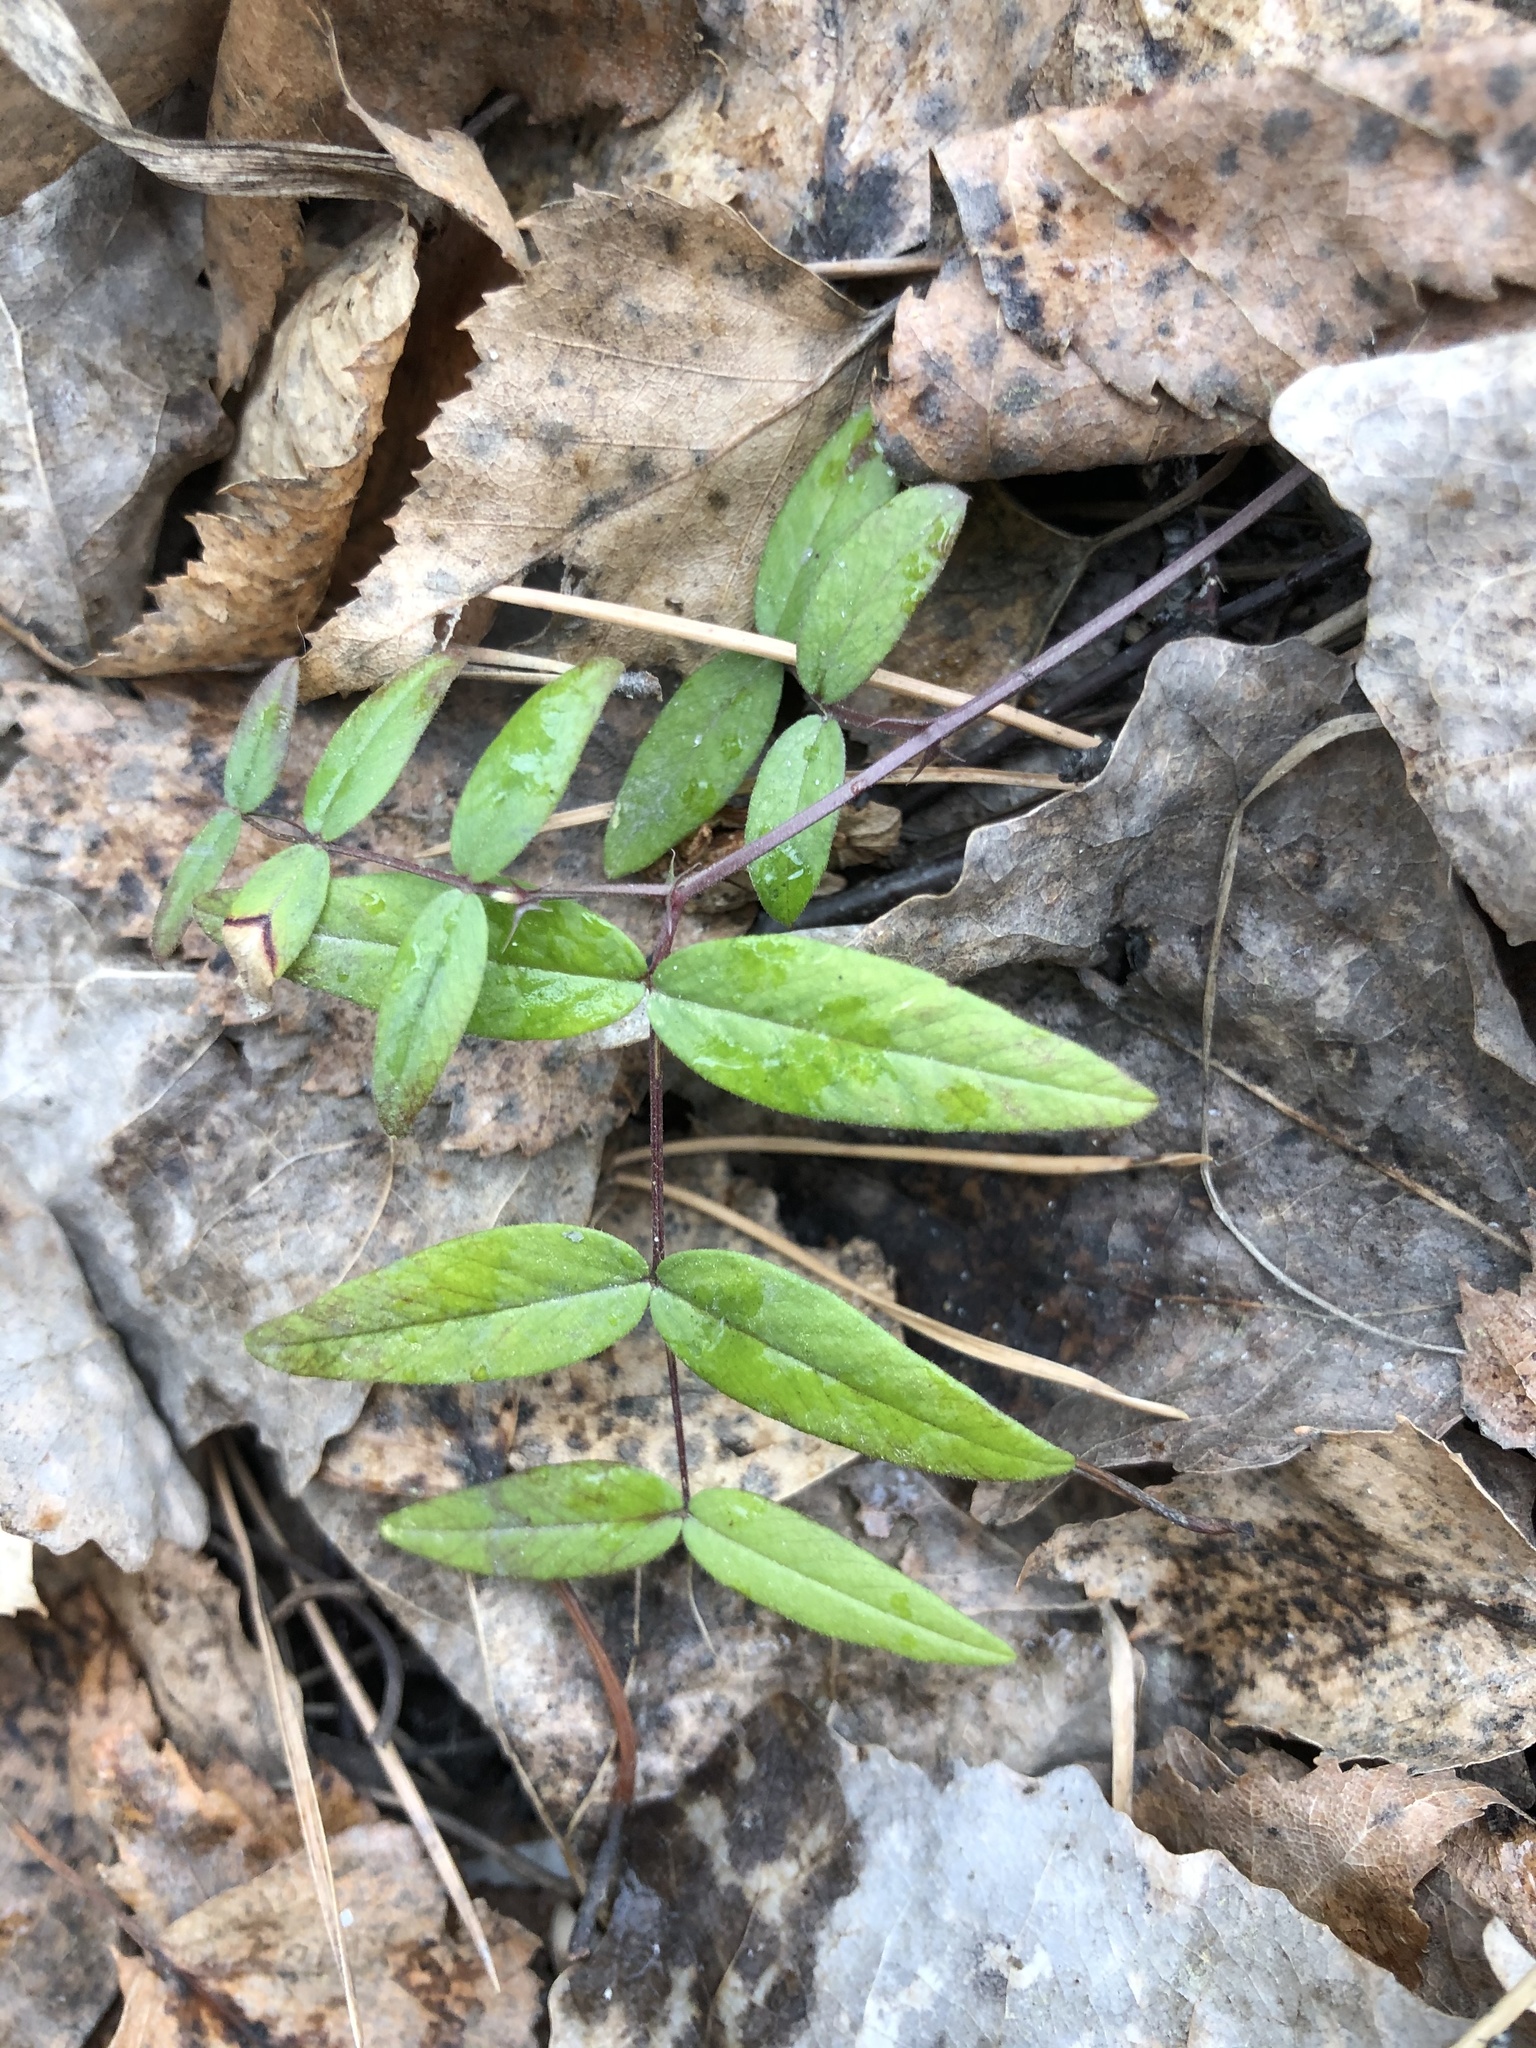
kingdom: Plantae
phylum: Tracheophyta
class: Magnoliopsida
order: Fabales
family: Fabaceae
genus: Vicia
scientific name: Vicia sepium
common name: Bush vetch
